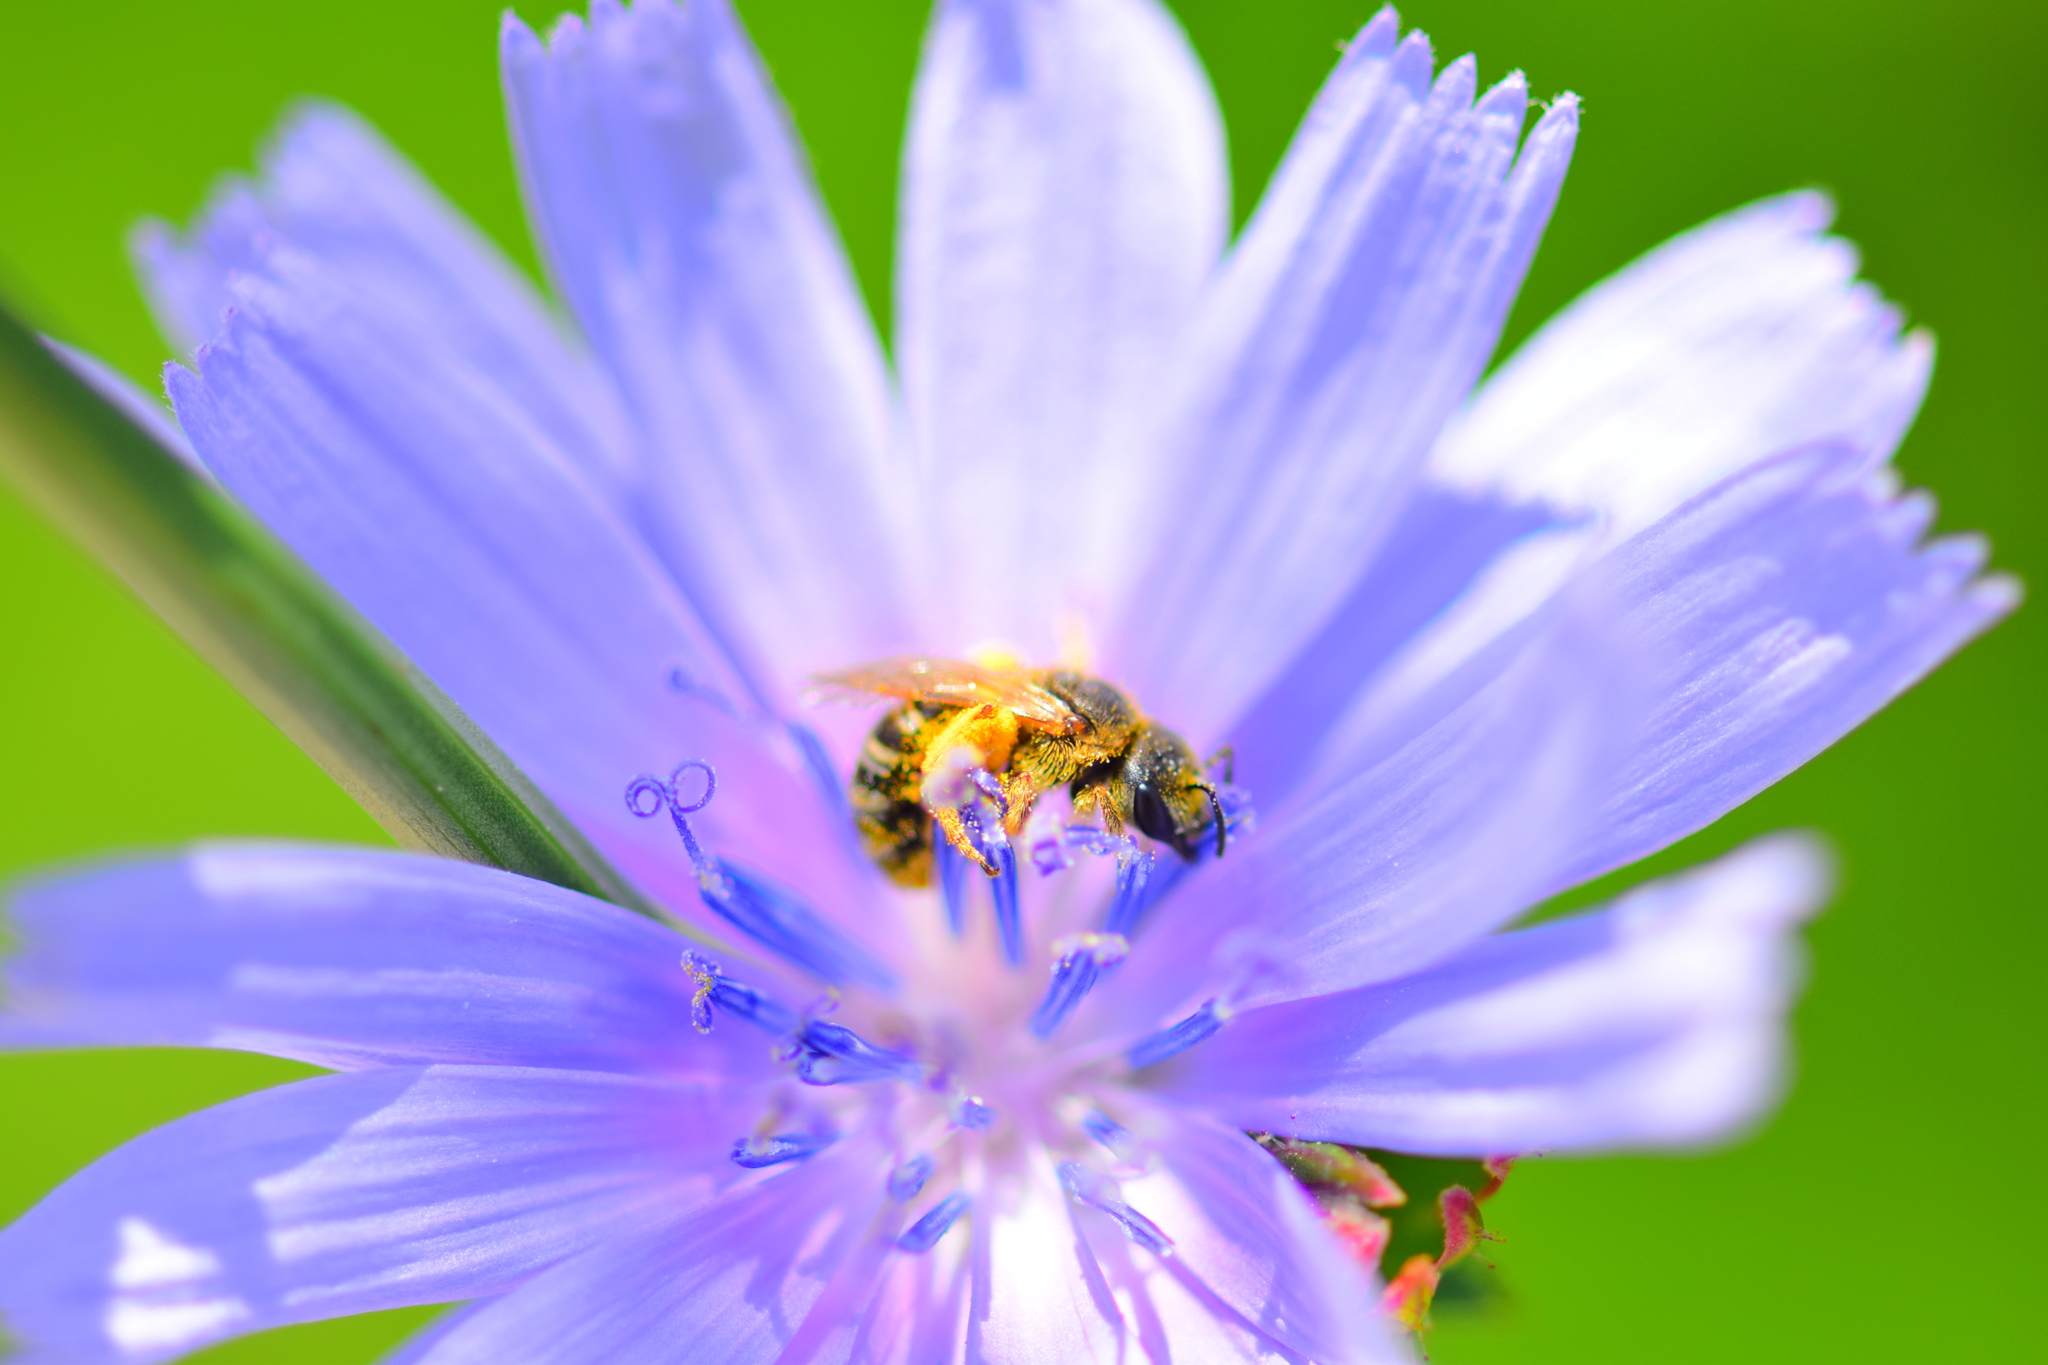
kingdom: Animalia
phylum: Arthropoda
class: Insecta
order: Hymenoptera
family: Halictidae
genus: Halictus
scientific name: Halictus ligatus
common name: Ligated furrow bee
